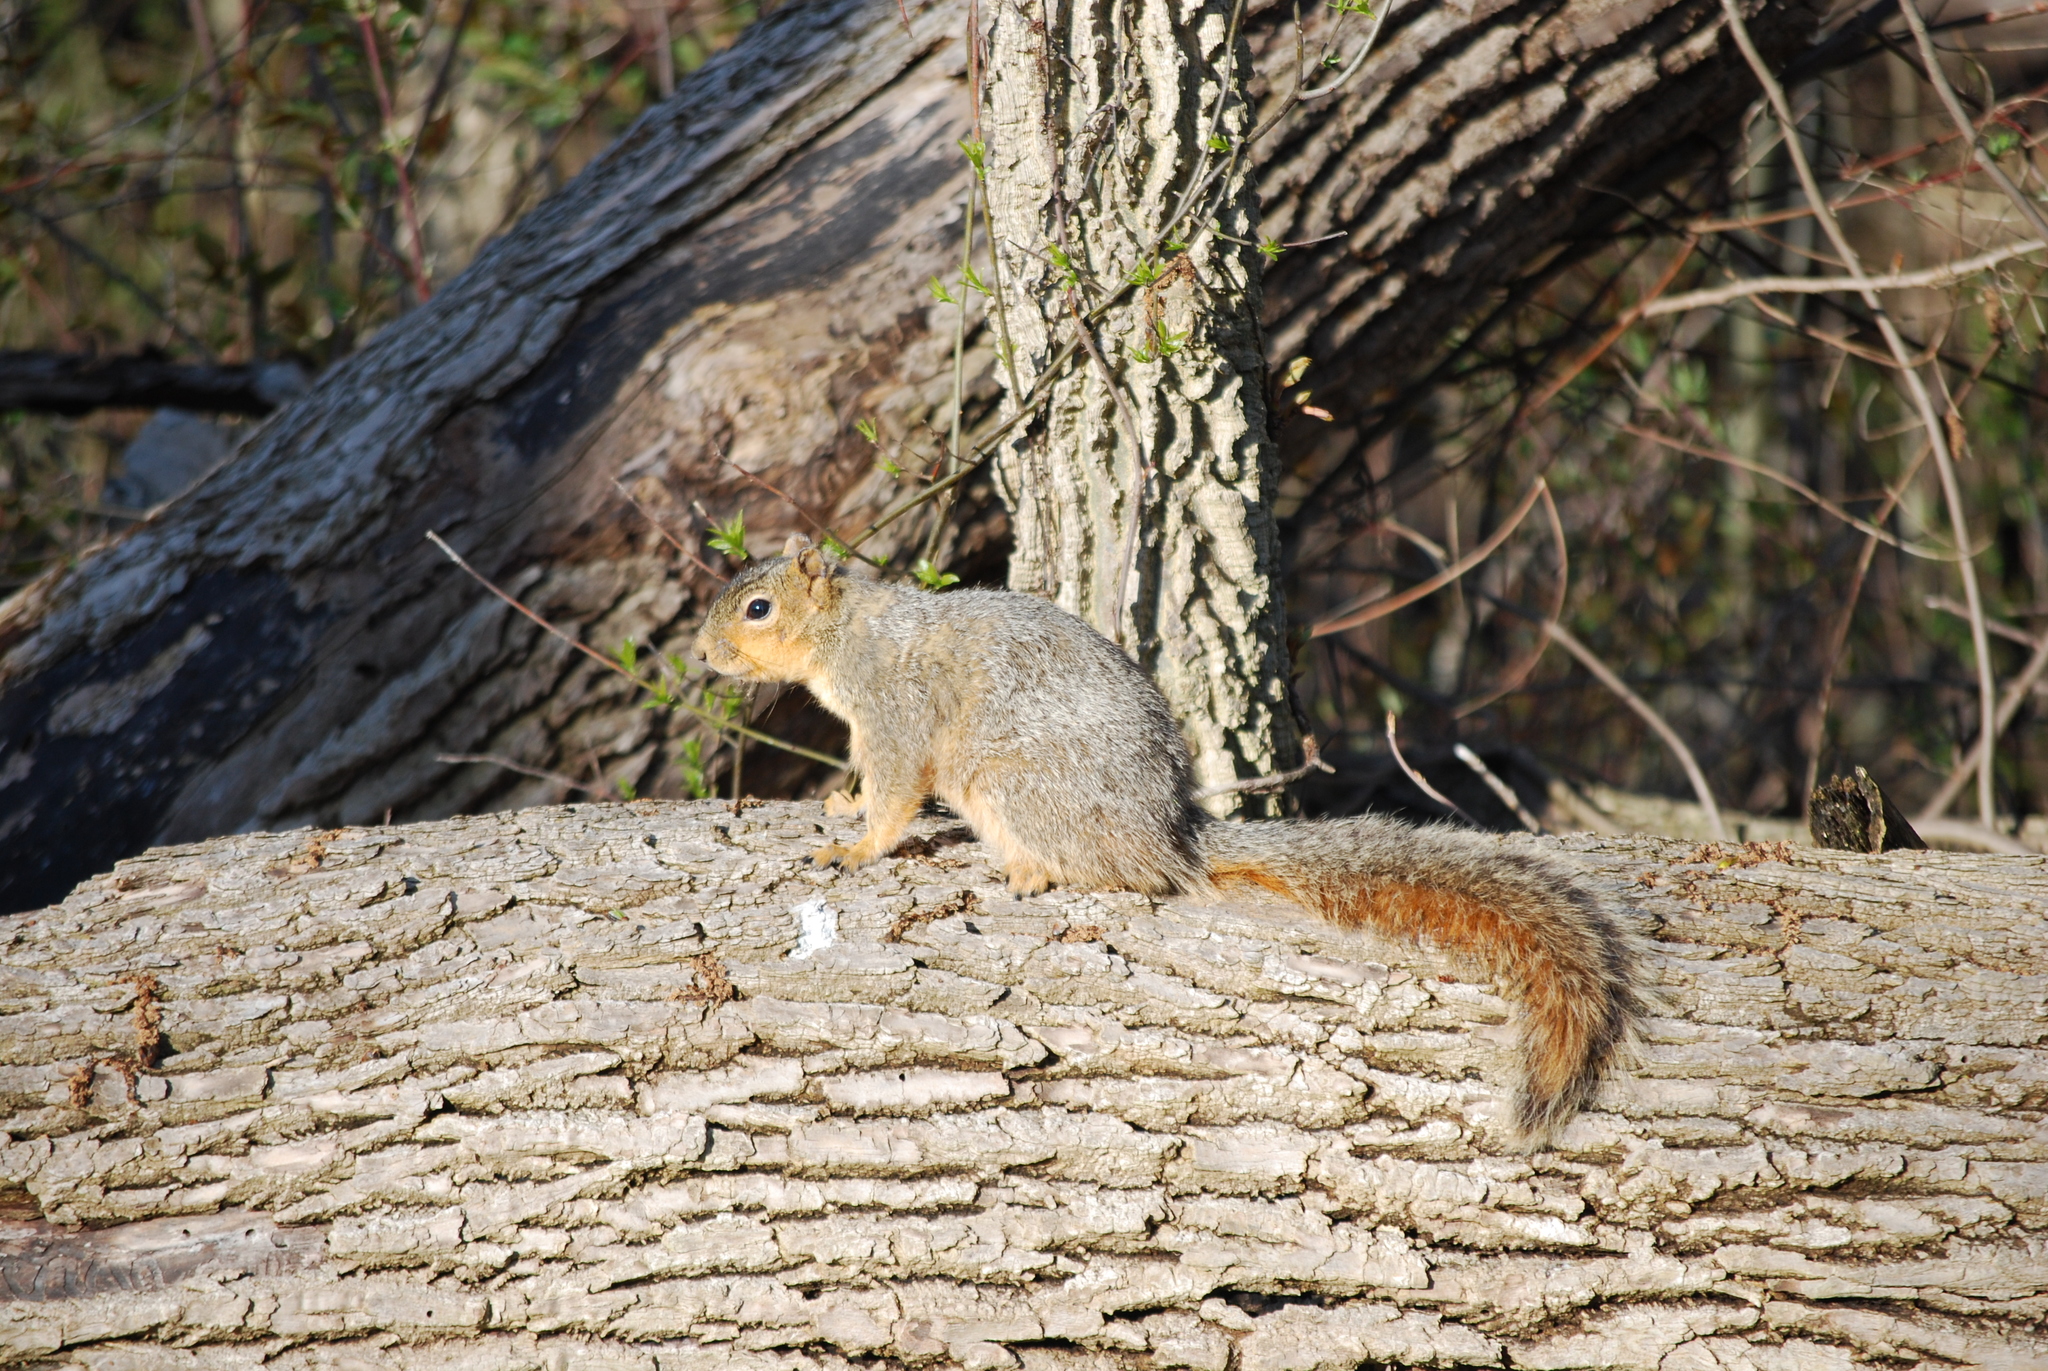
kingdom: Animalia
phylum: Chordata
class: Mammalia
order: Rodentia
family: Sciuridae
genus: Sciurus
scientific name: Sciurus niger
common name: Fox squirrel
